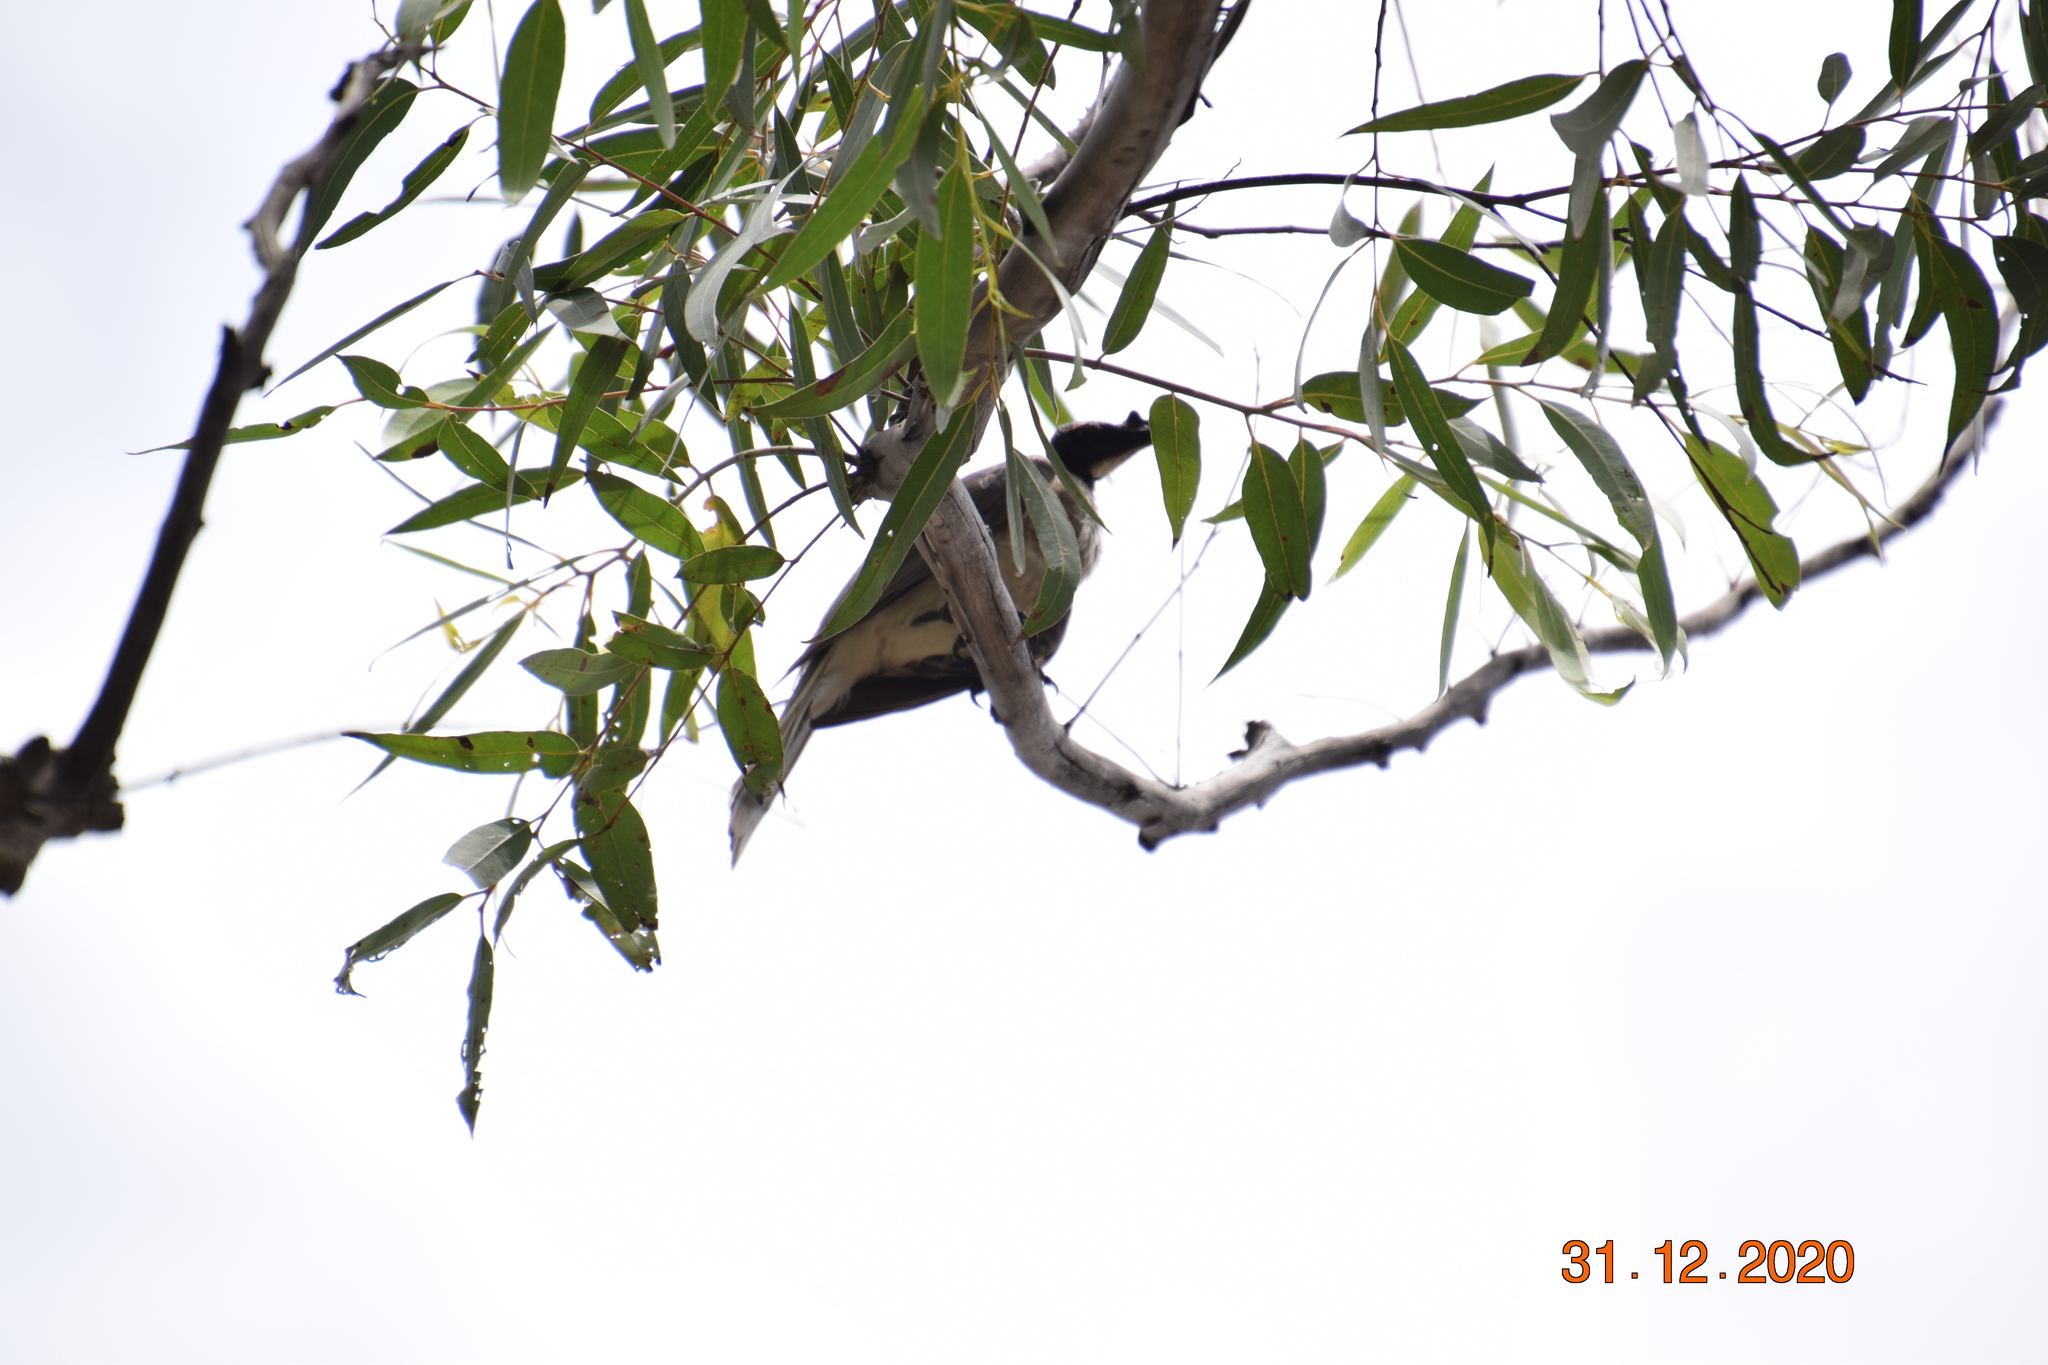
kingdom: Animalia
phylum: Chordata
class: Aves
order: Passeriformes
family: Meliphagidae
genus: Philemon
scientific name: Philemon corniculatus
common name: Noisy friarbird
